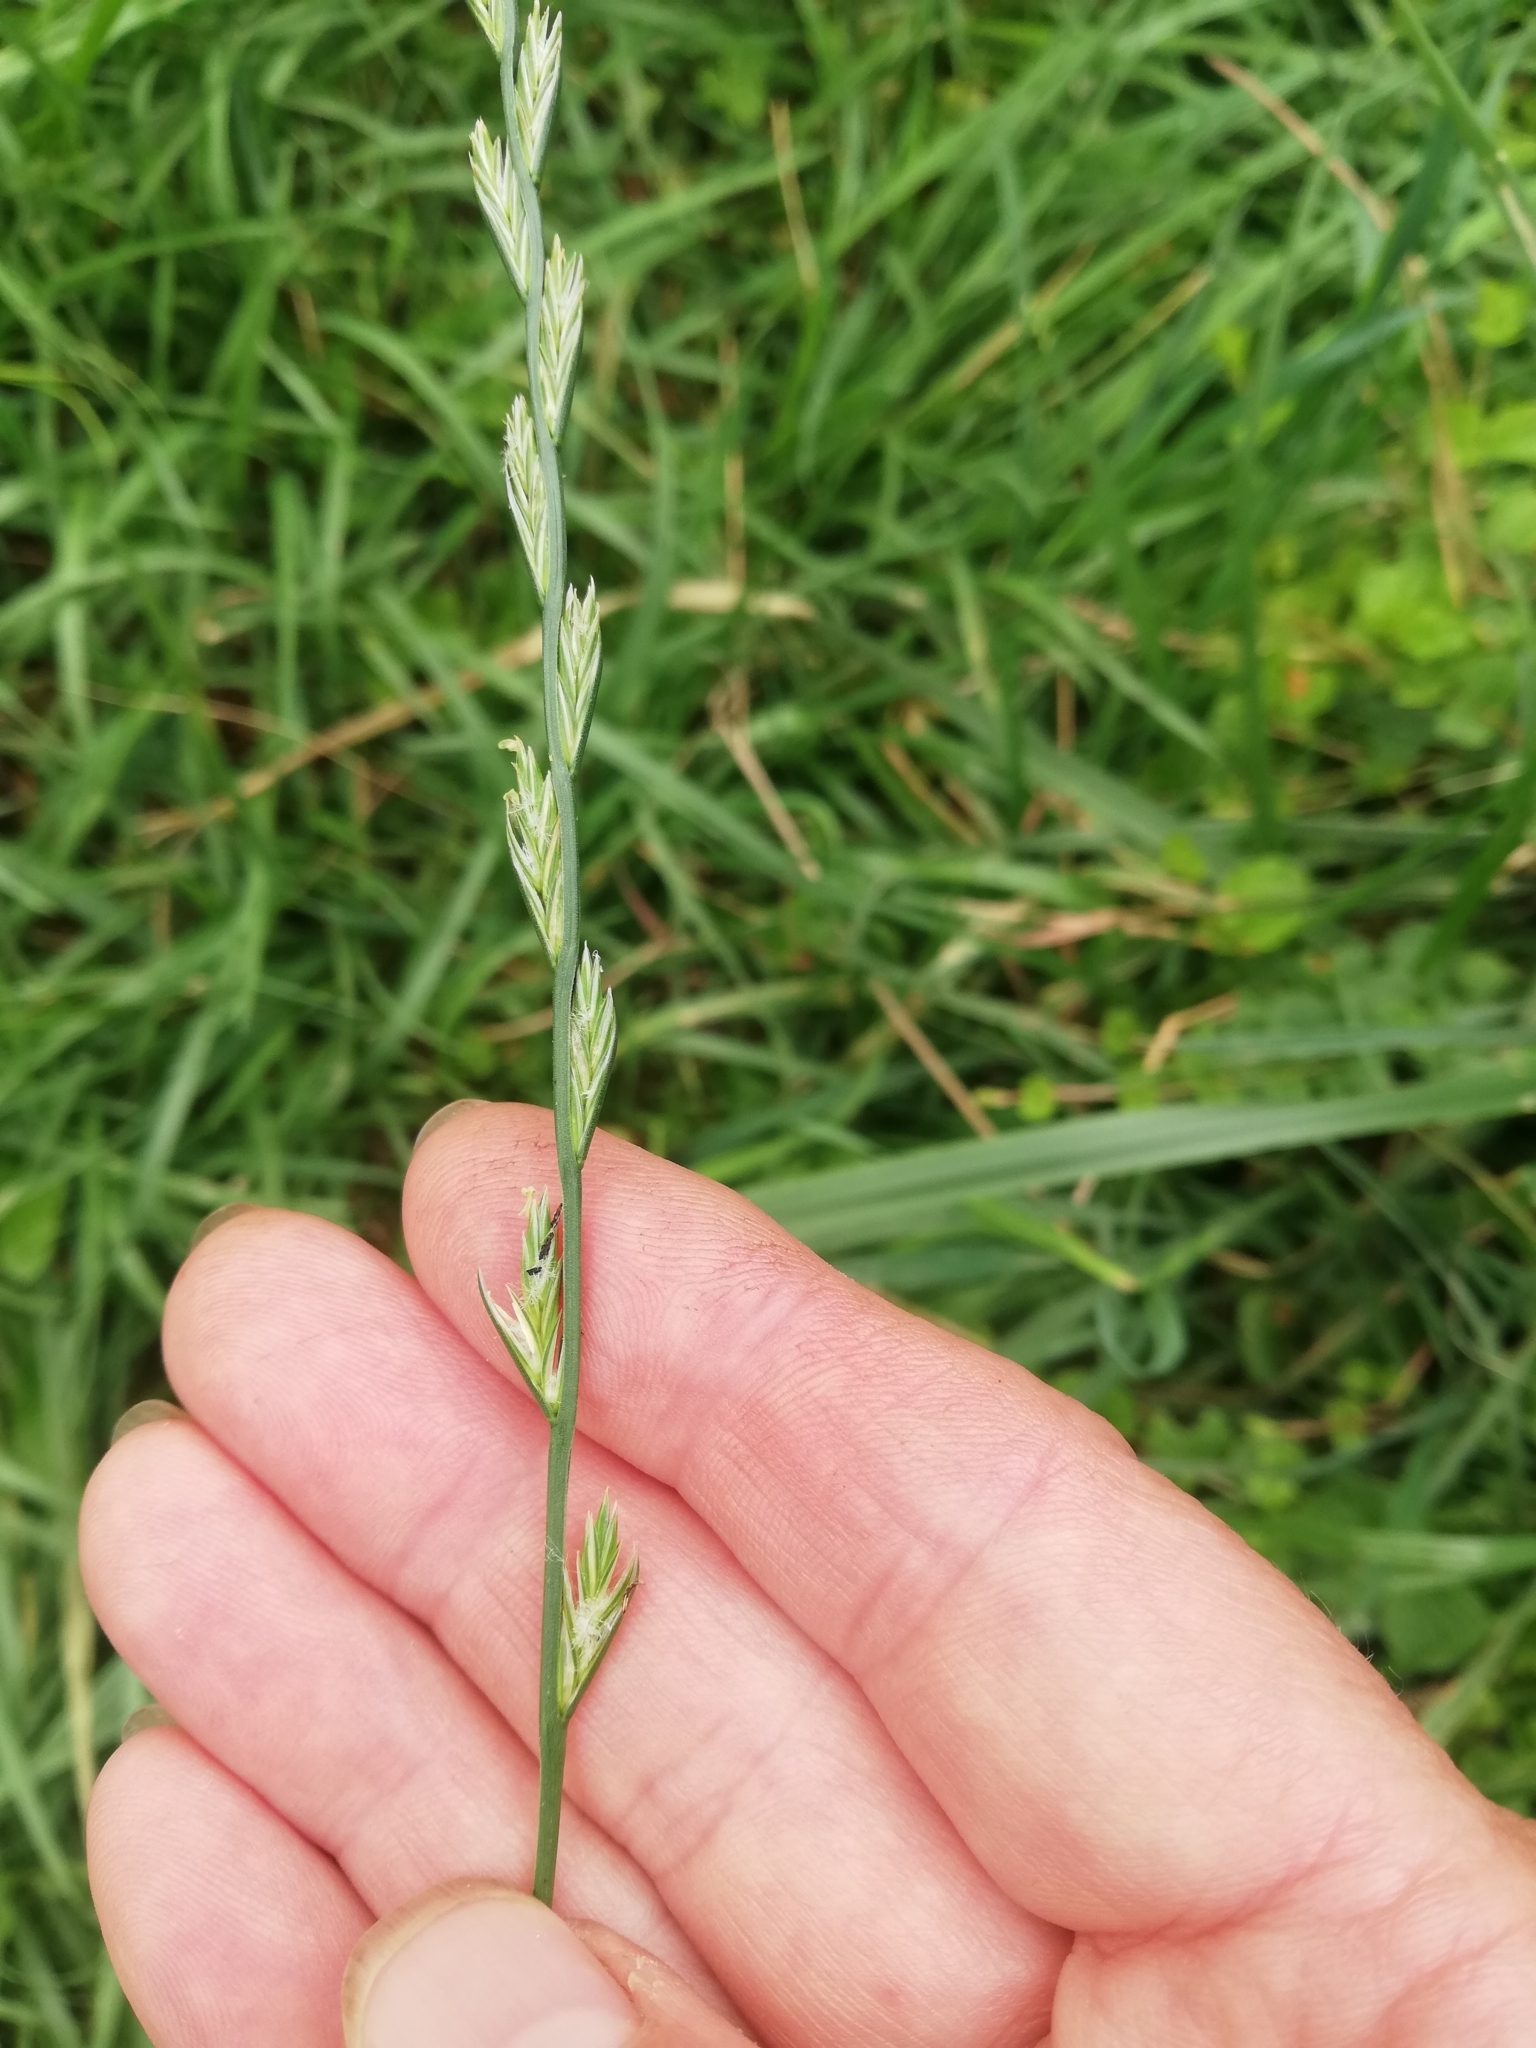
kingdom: Plantae
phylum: Tracheophyta
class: Liliopsida
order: Poales
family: Poaceae
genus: Lolium
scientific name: Lolium perenne
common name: Perennial ryegrass
